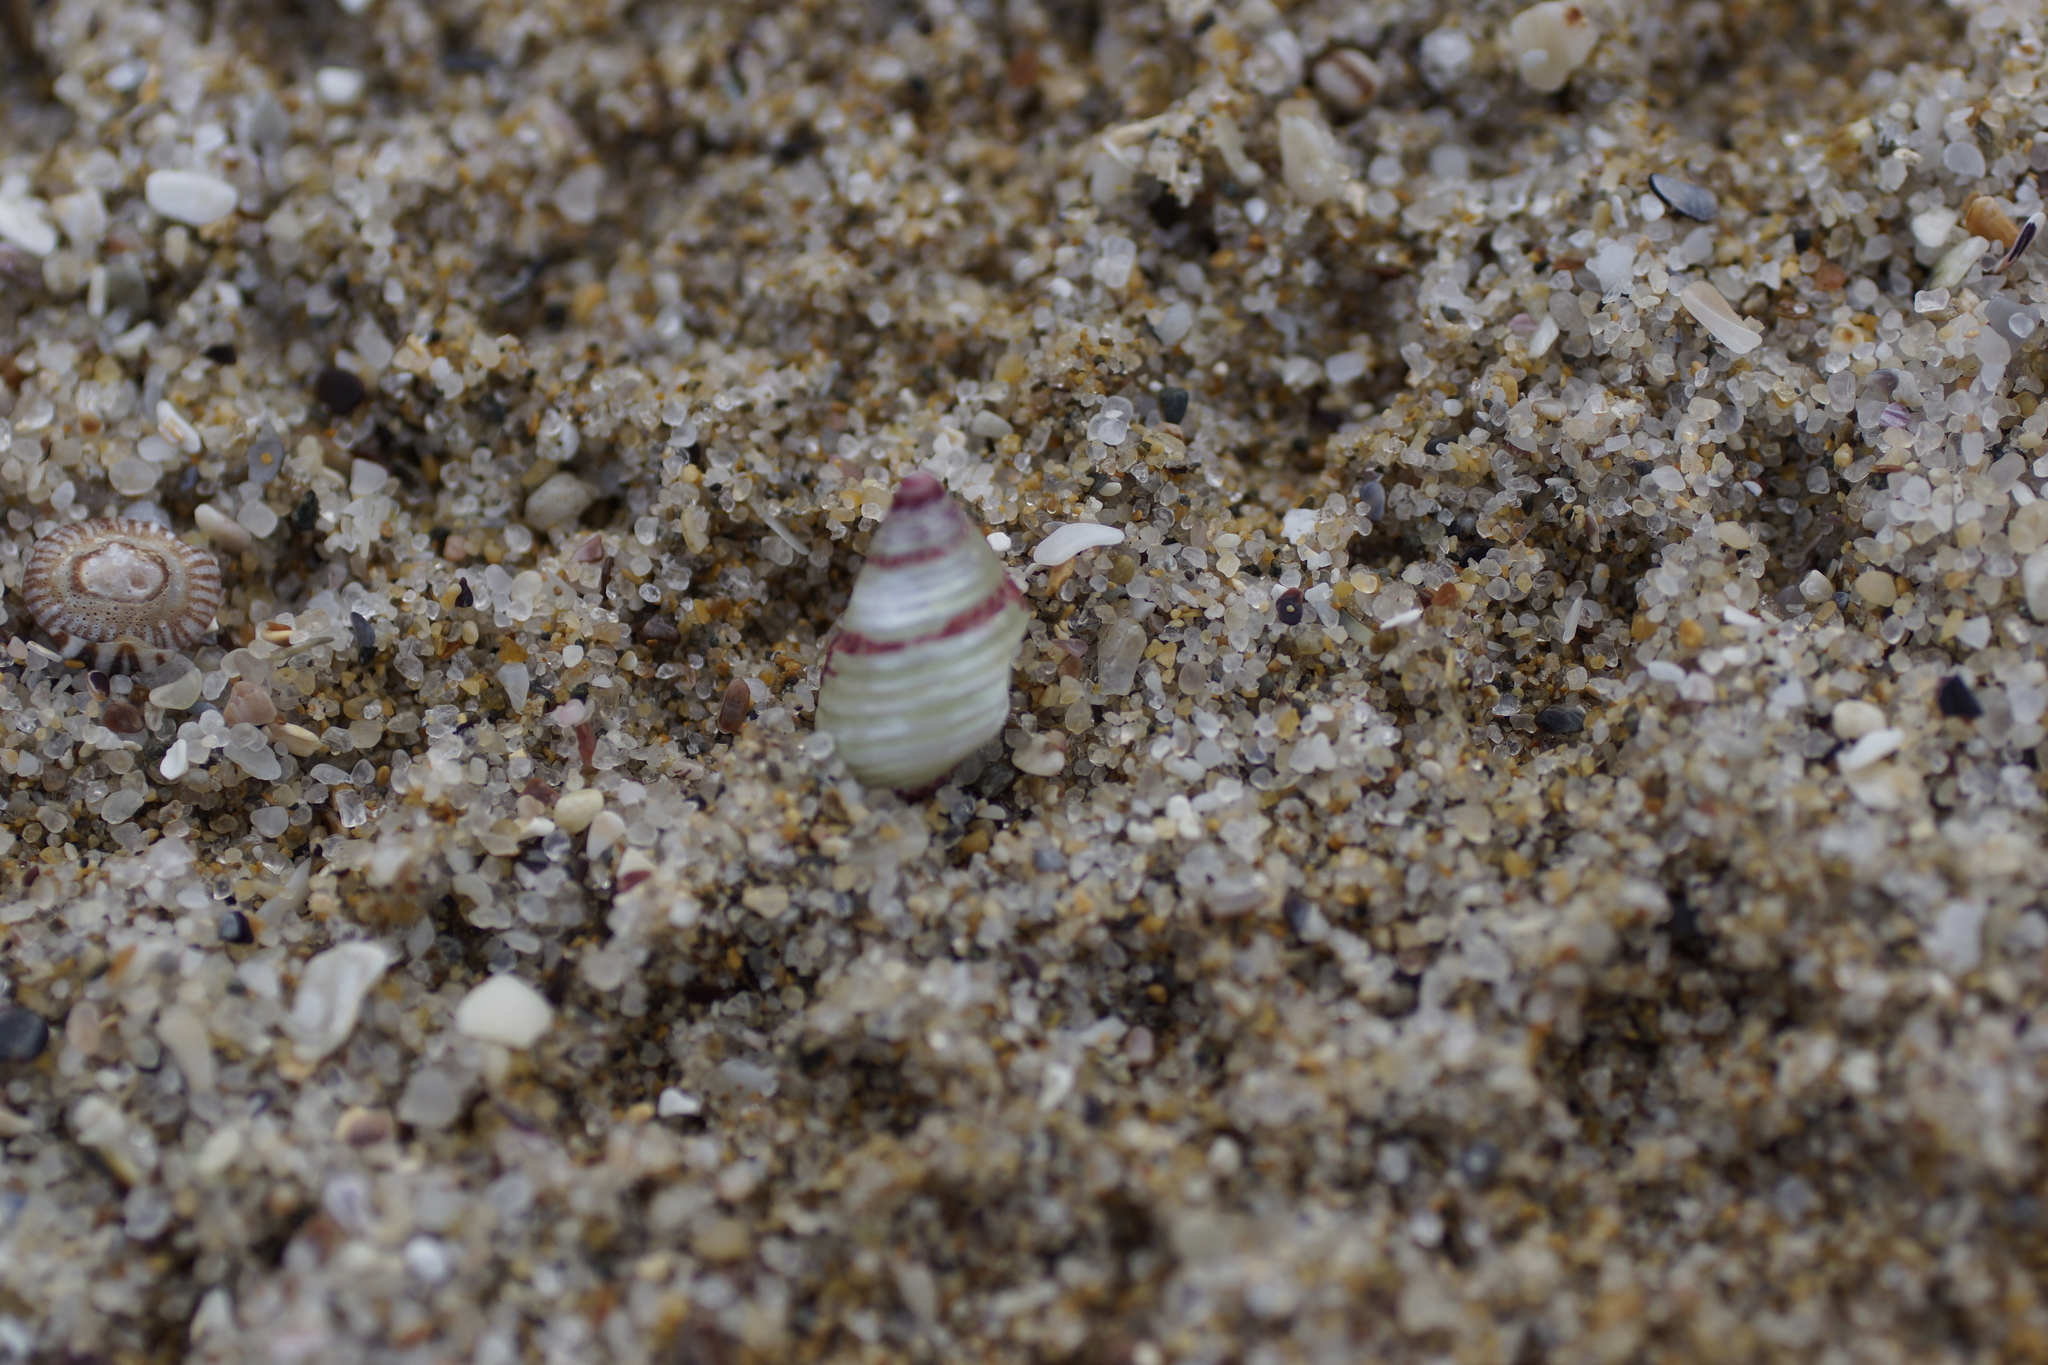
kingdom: Animalia
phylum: Mollusca
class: Gastropoda
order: Trochida
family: Trochidae
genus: Prothalotia
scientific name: Prothalotia pulcherrima
